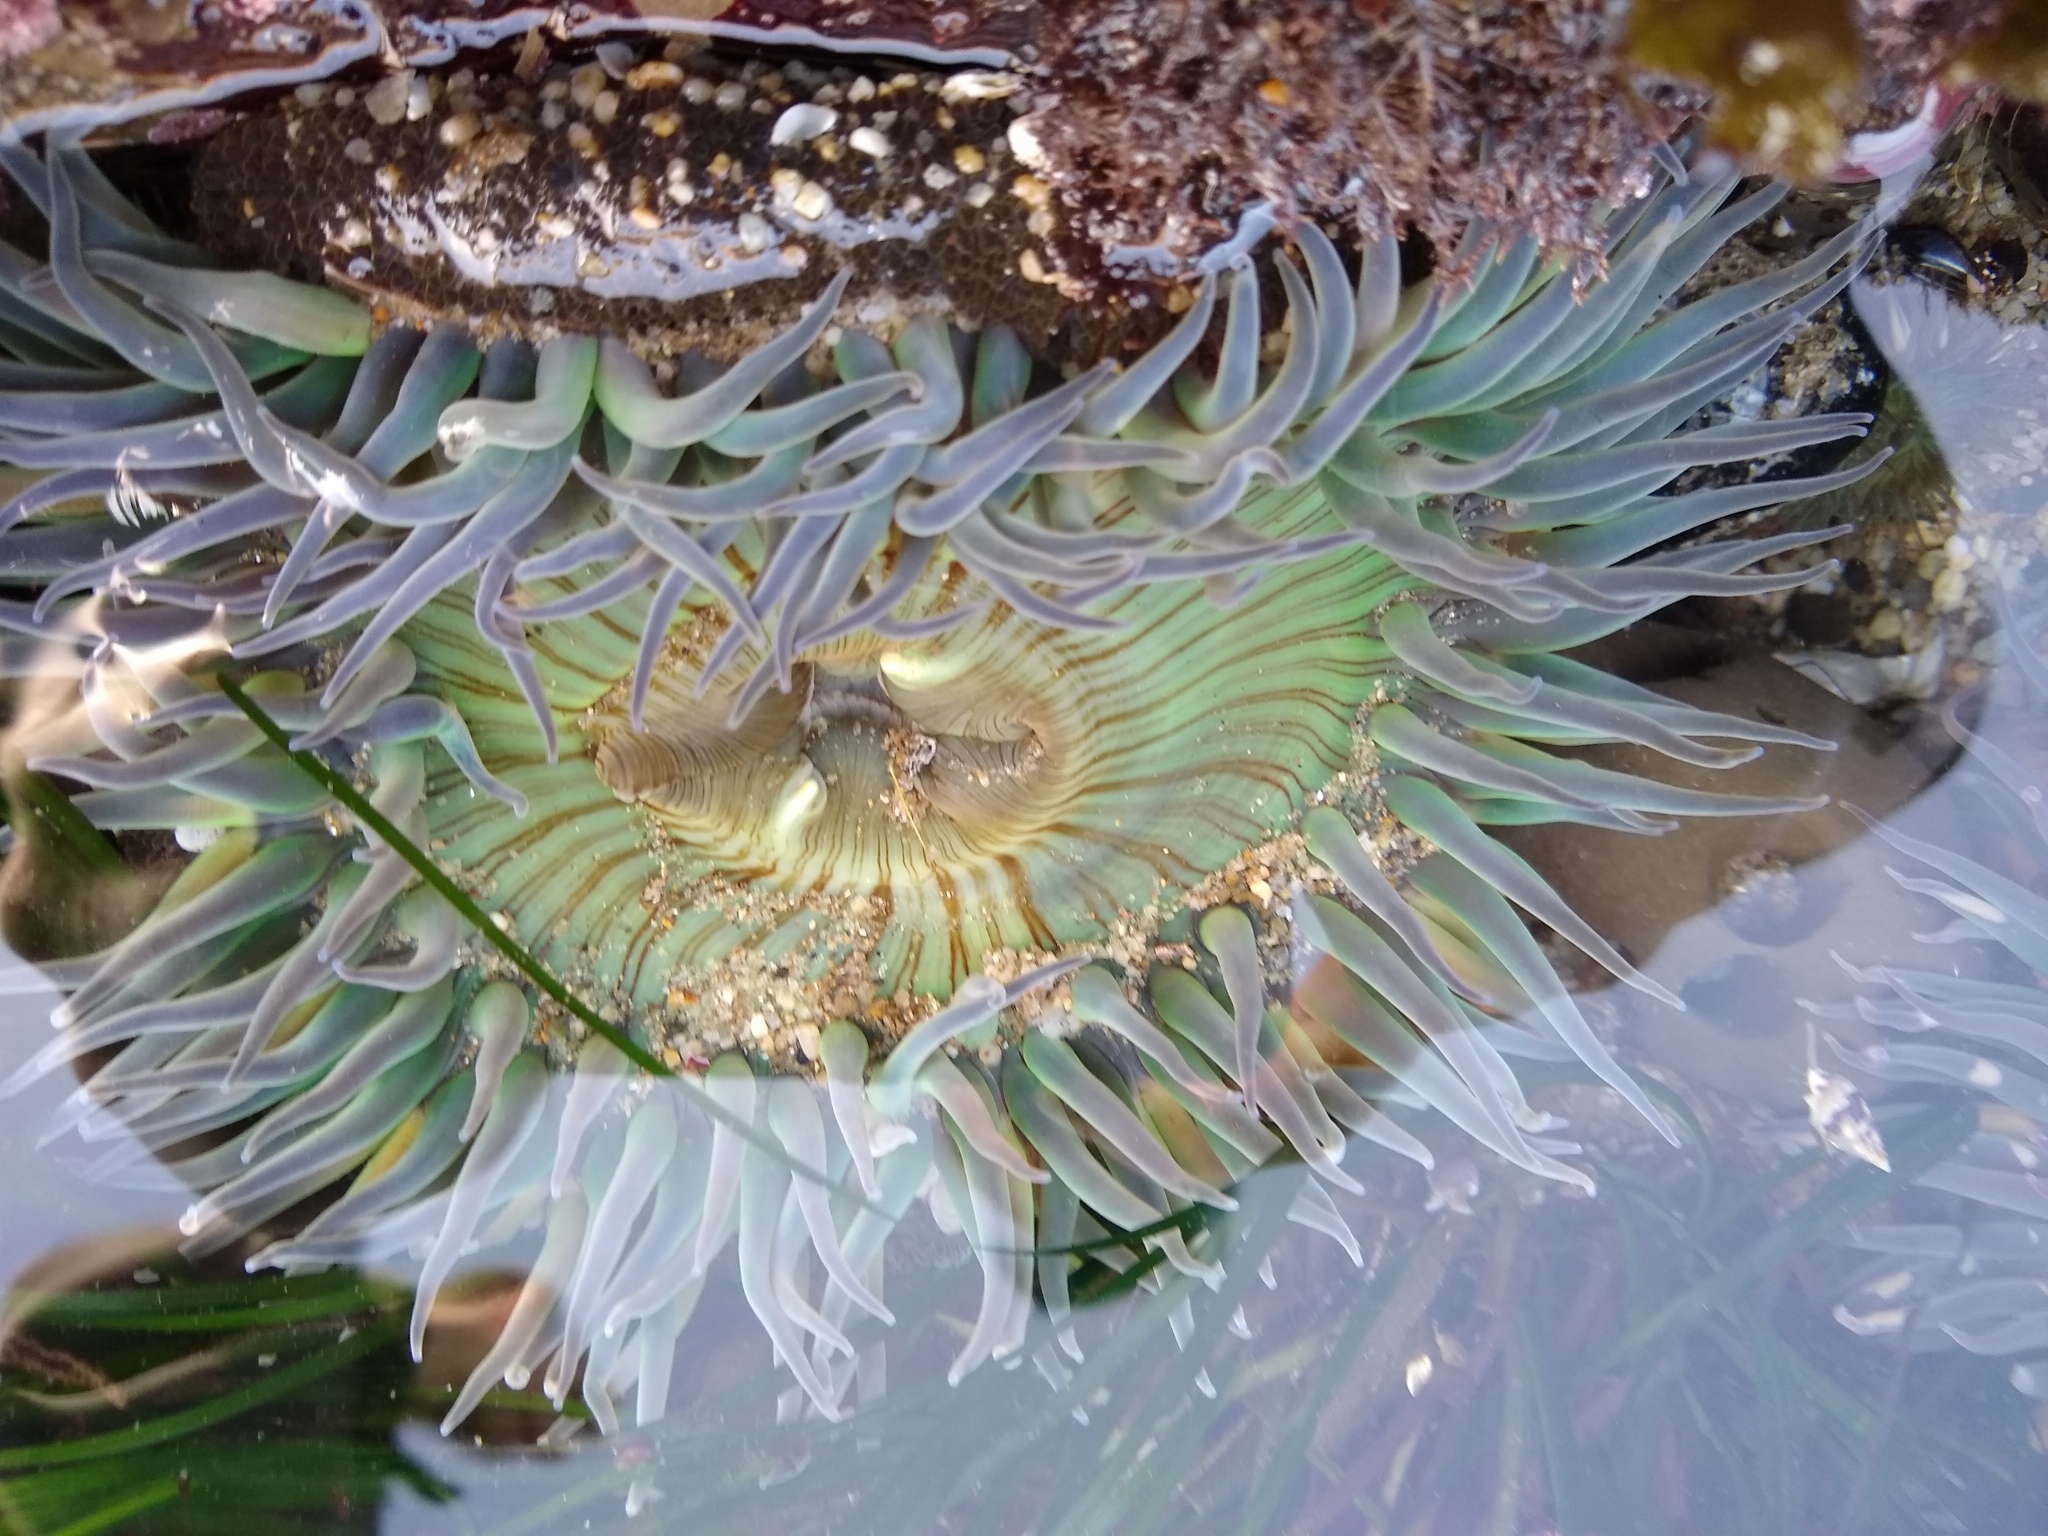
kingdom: Animalia
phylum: Cnidaria
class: Anthozoa
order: Actiniaria
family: Actiniidae
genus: Anthopleura
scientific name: Anthopleura sola
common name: Sun anemone
